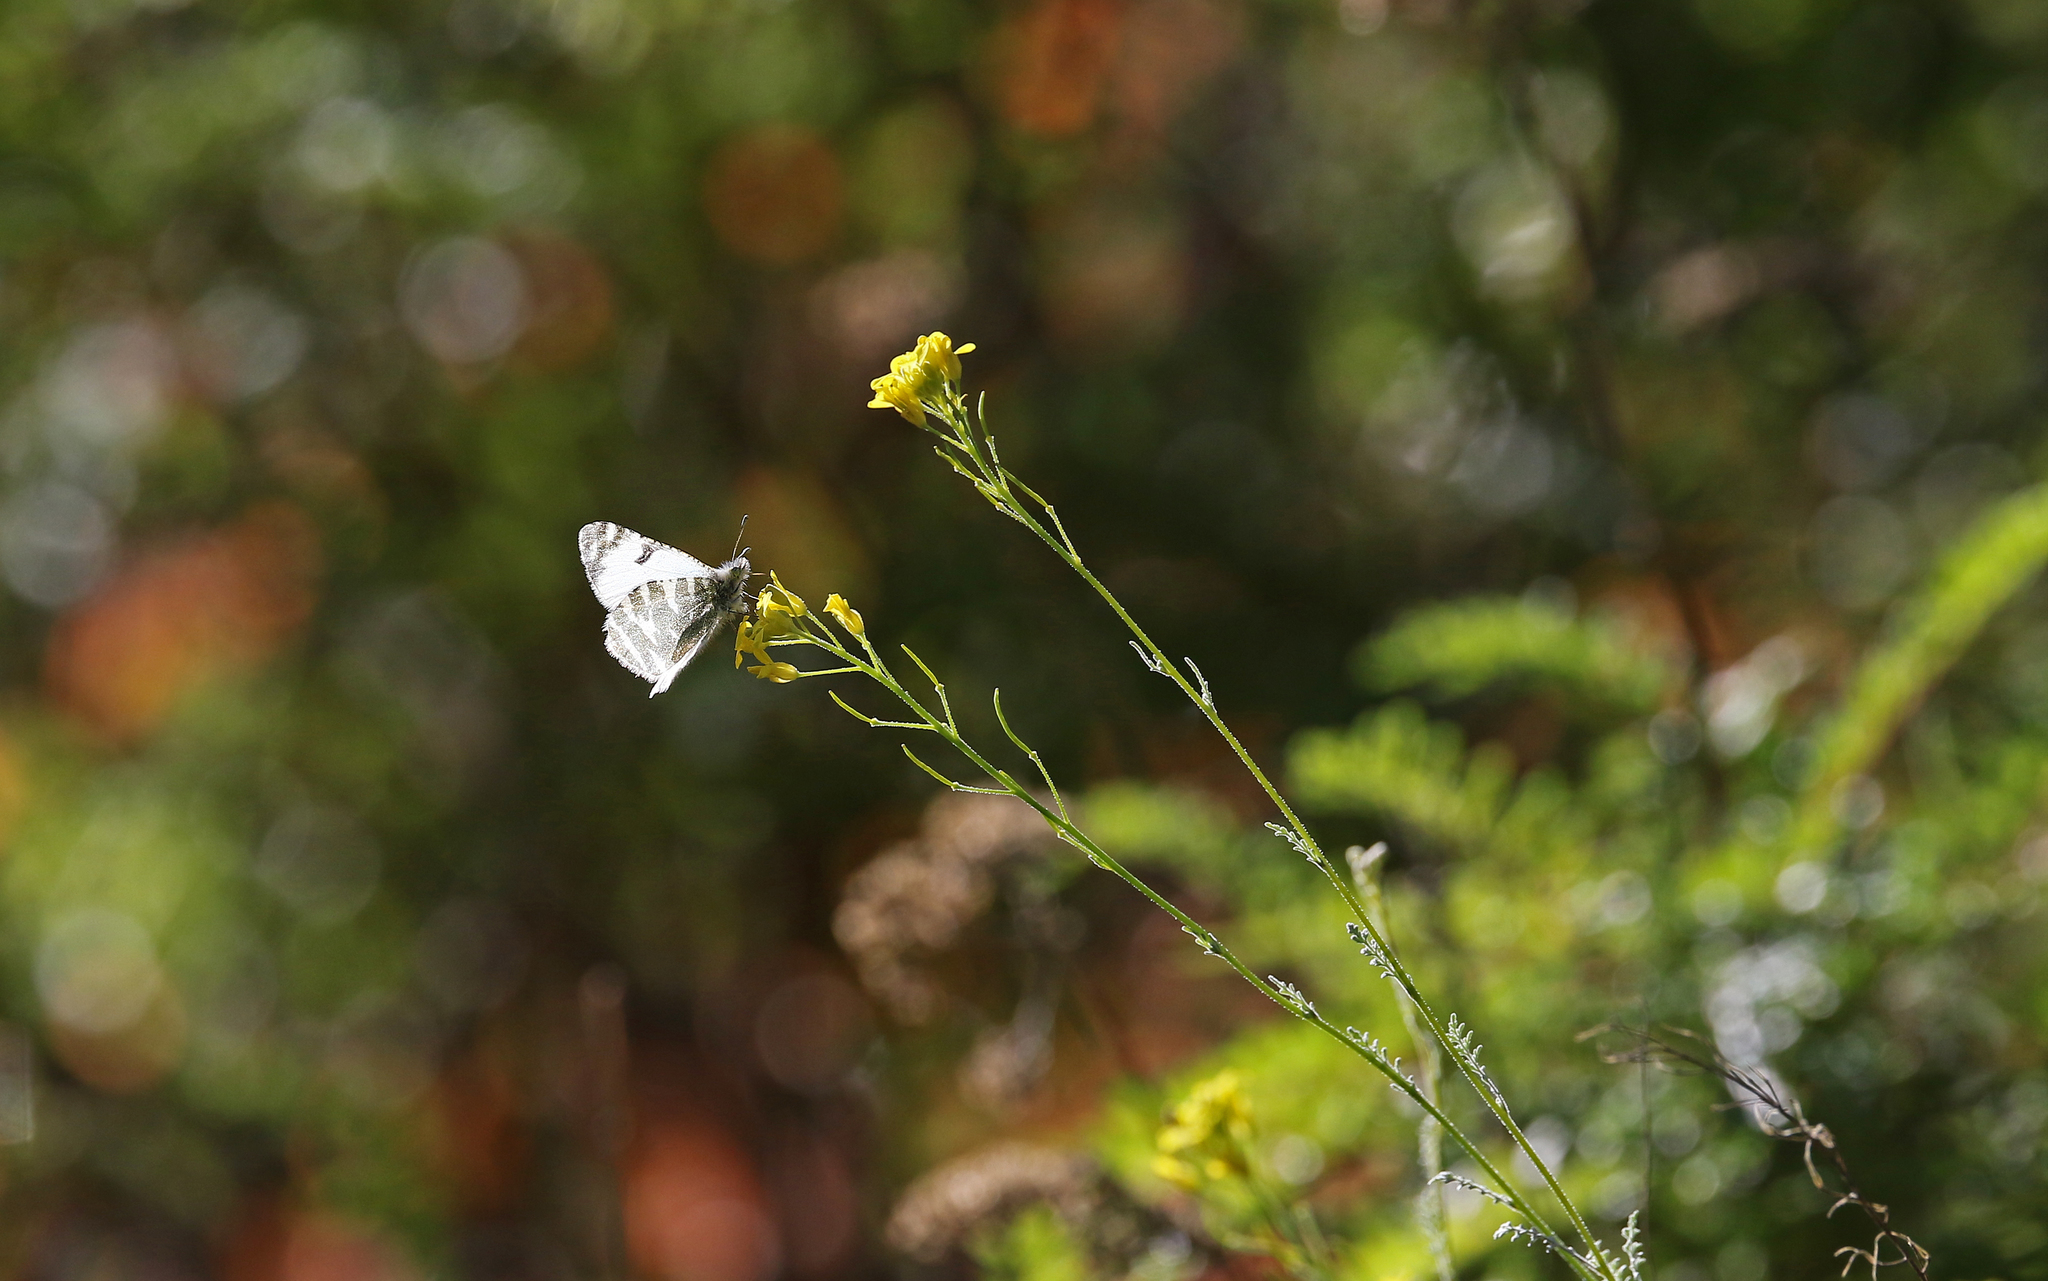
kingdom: Animalia
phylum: Arthropoda
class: Insecta
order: Lepidoptera
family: Pieridae
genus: Euchloe
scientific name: Euchloe eversi
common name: Tenerife green-striped white
